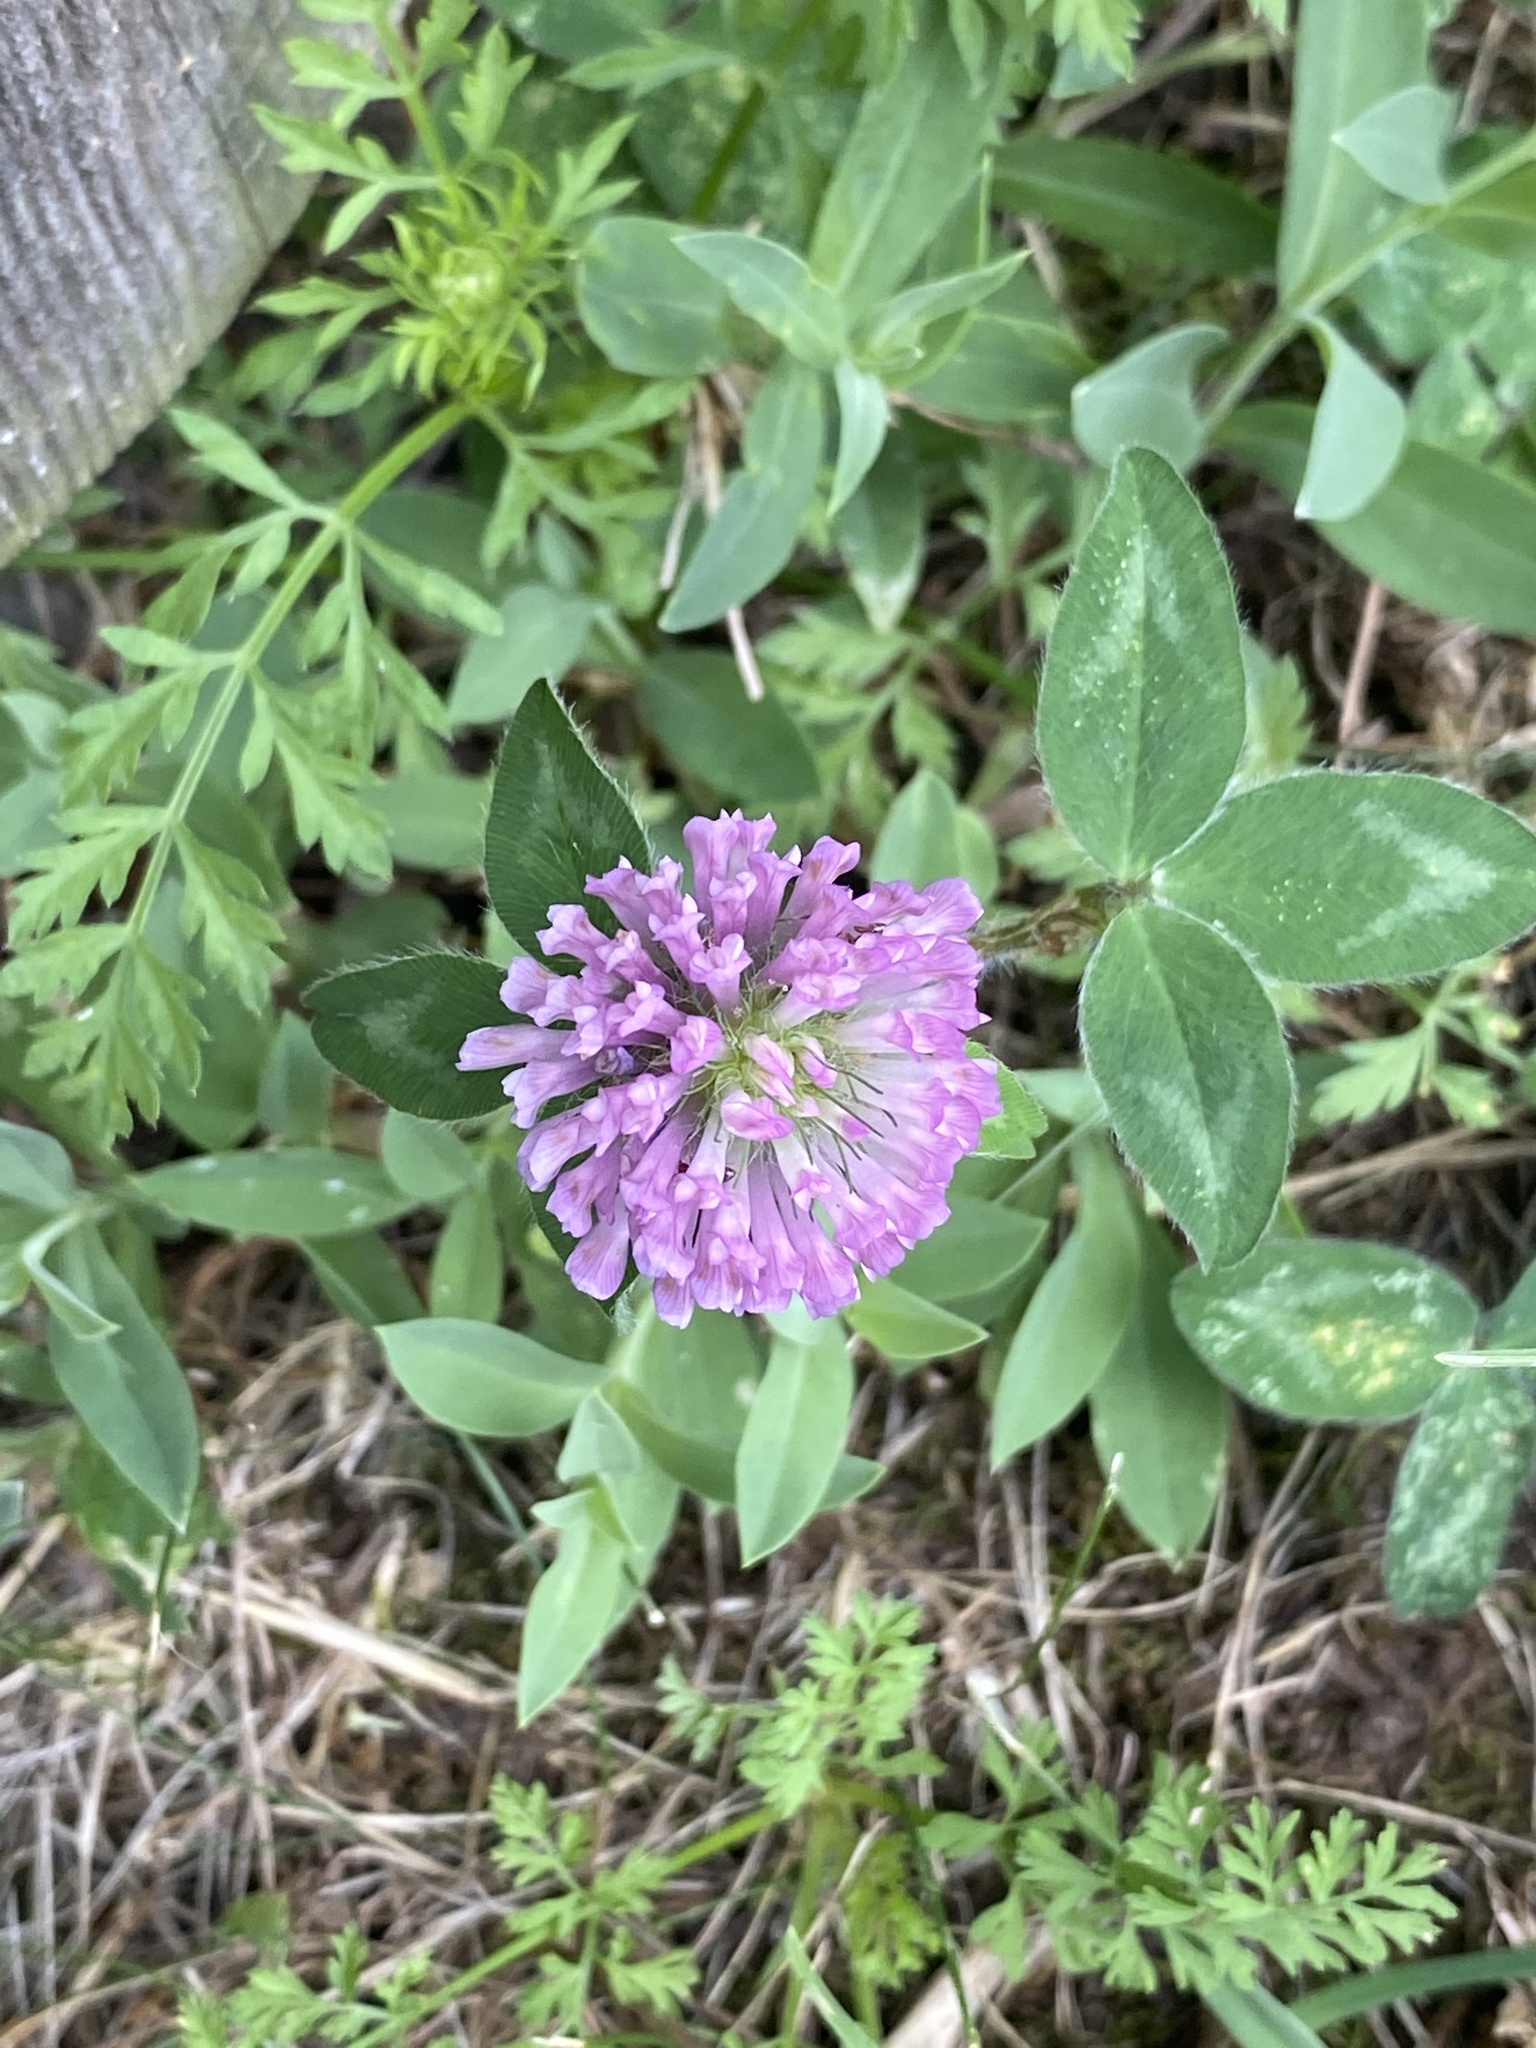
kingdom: Plantae
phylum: Tracheophyta
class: Magnoliopsida
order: Fabales
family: Fabaceae
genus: Trifolium
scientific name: Trifolium pratense
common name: Red clover
